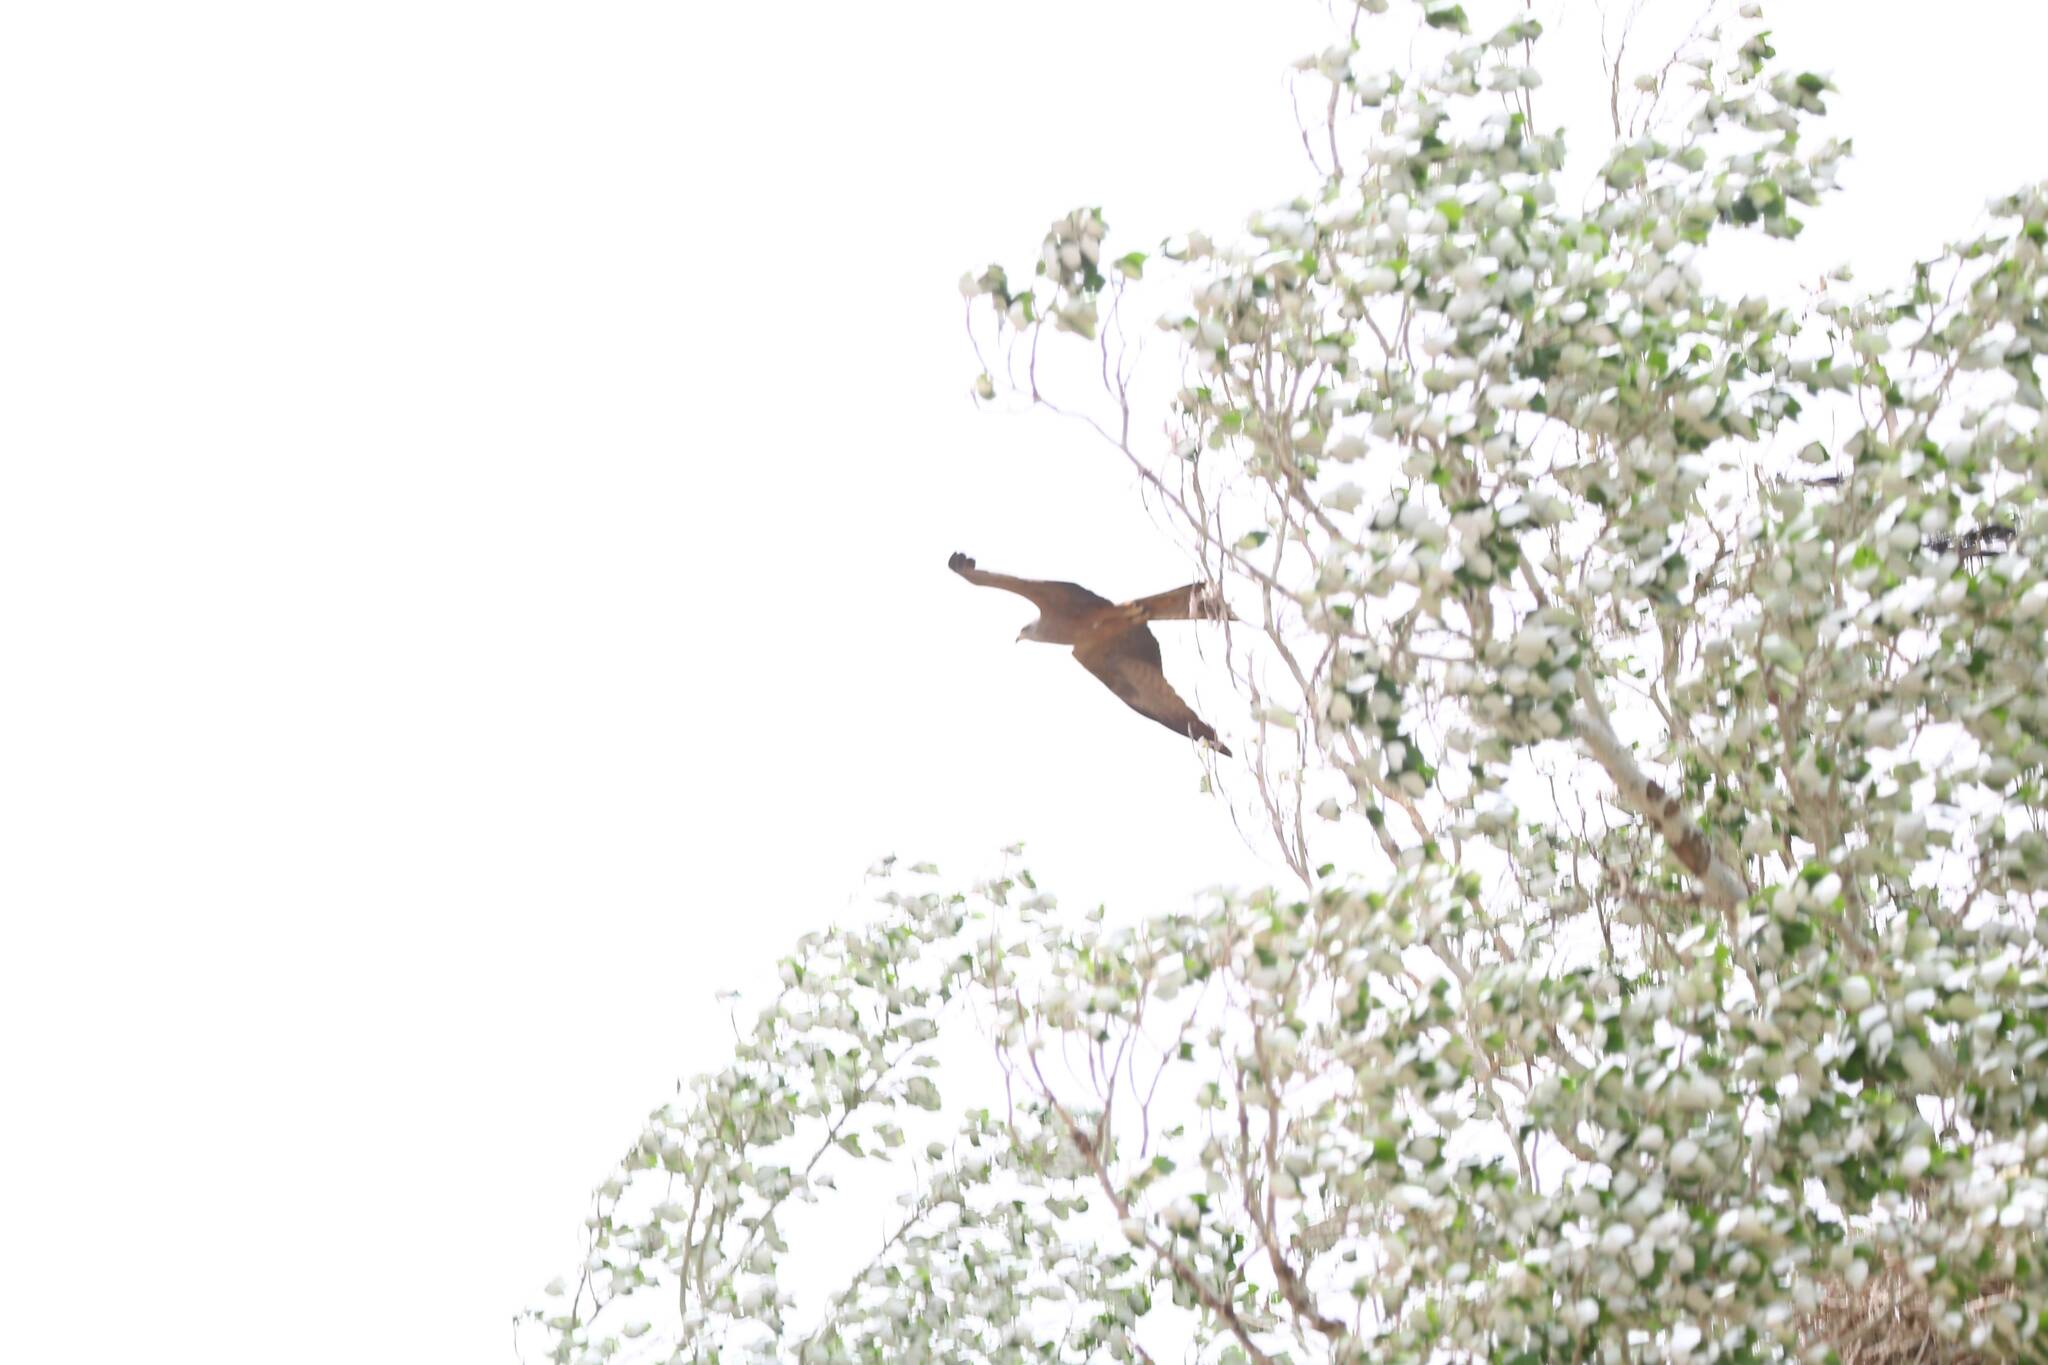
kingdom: Animalia
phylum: Chordata
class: Aves
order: Accipitriformes
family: Accipitridae
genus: Milvus
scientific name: Milvus migrans
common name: Black kite
